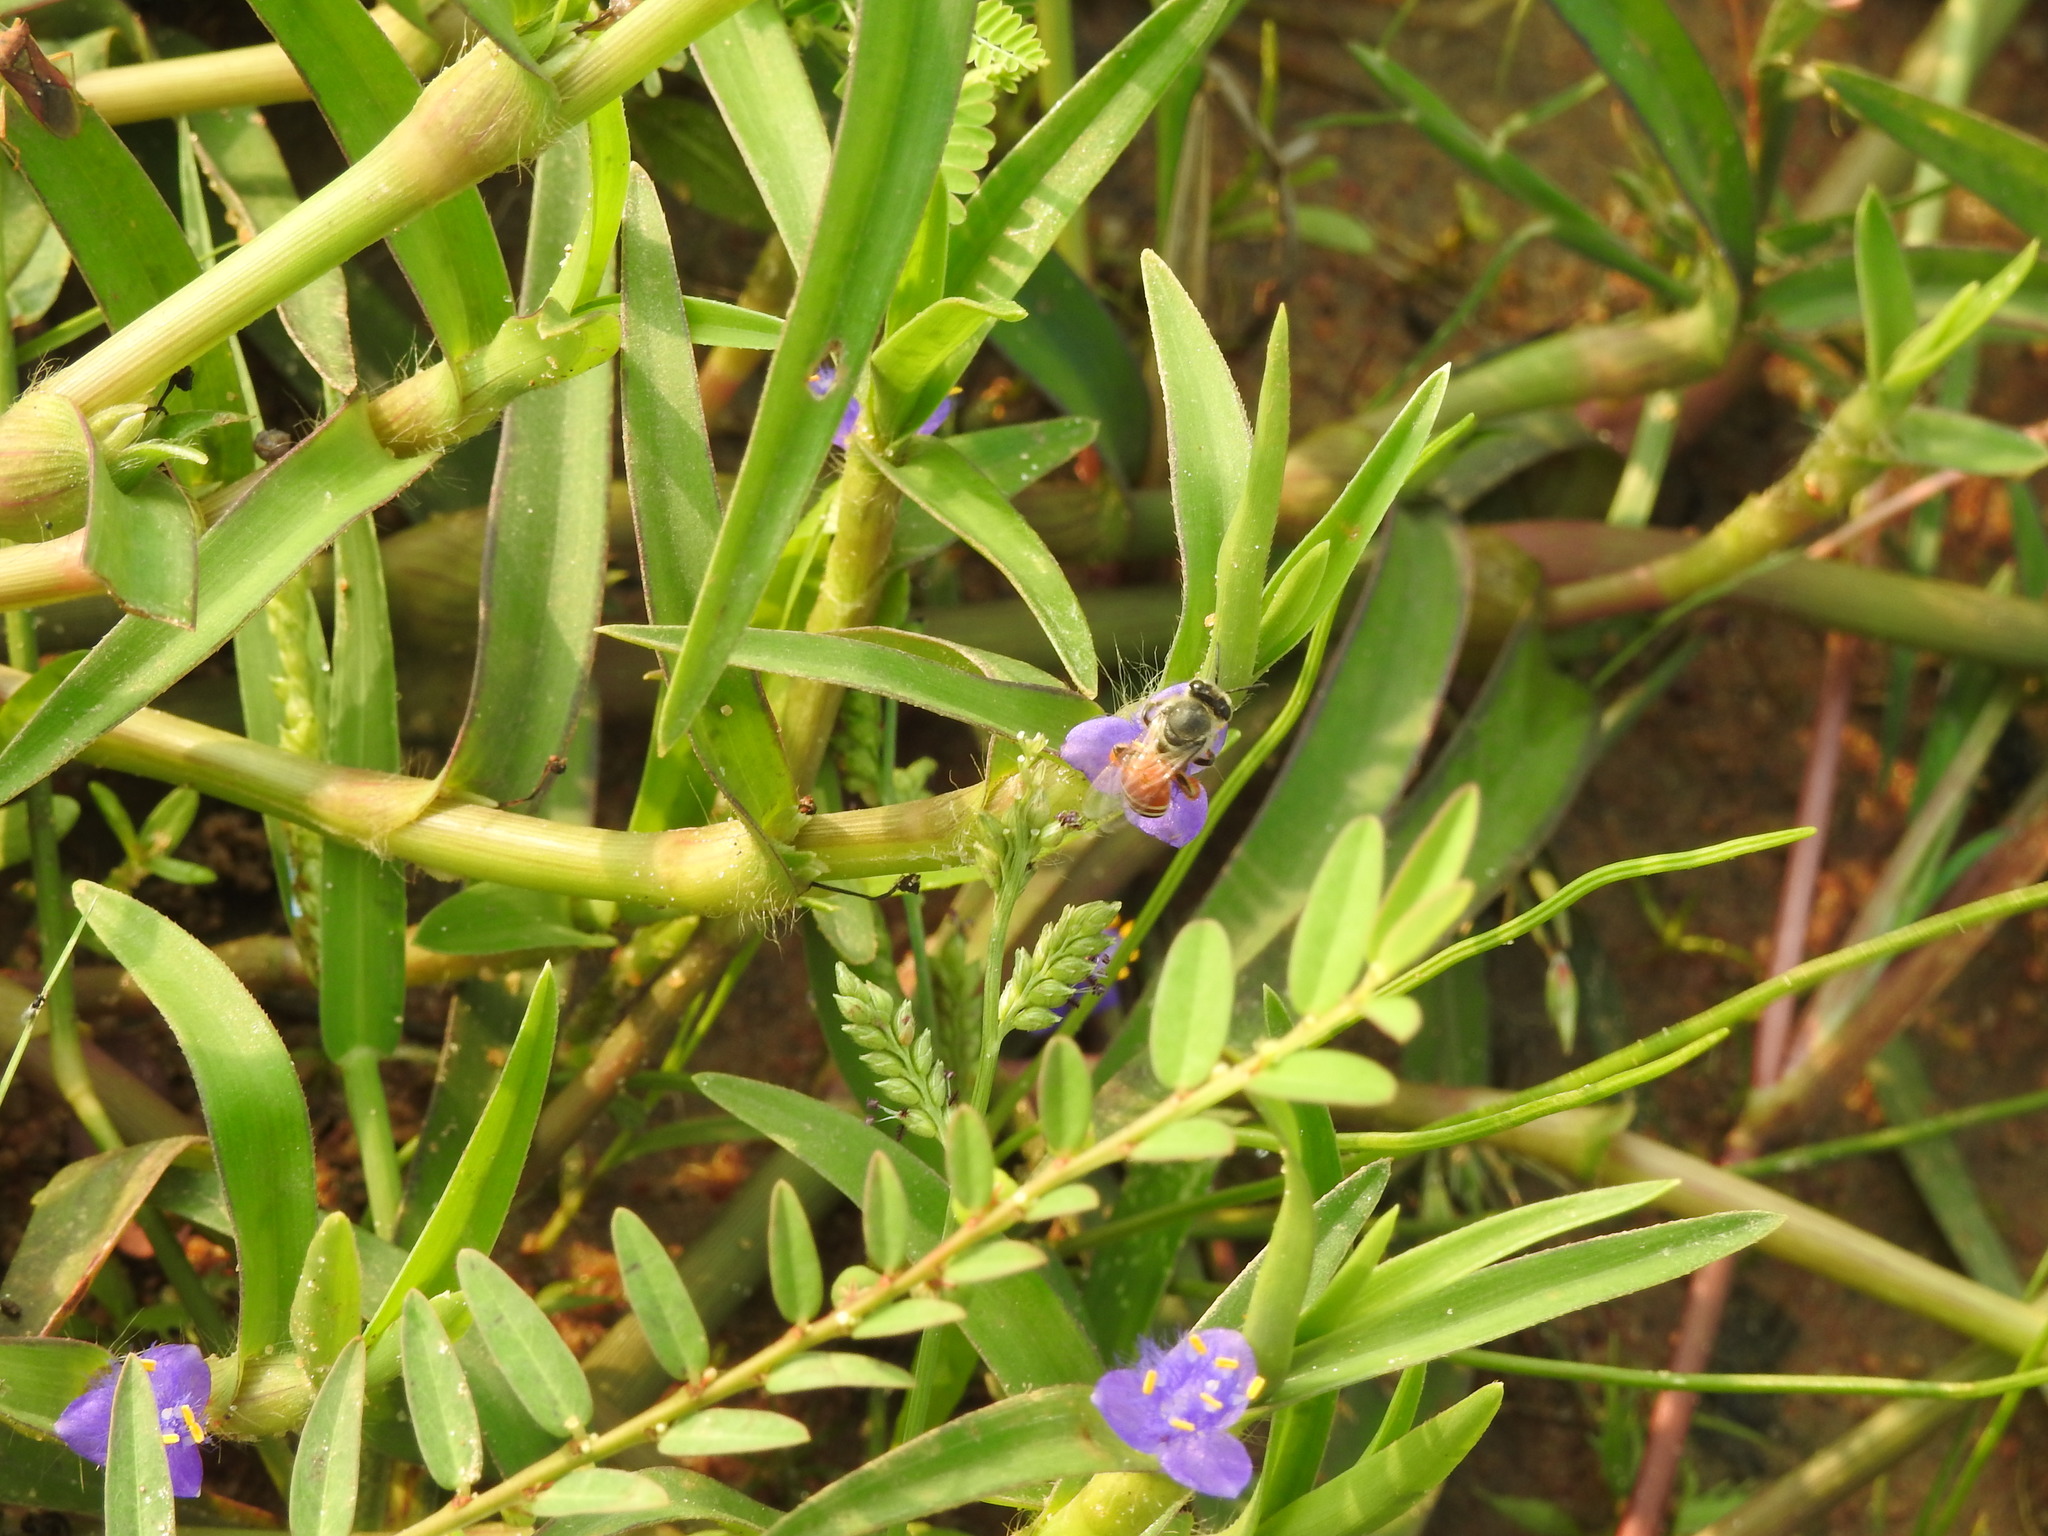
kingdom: Animalia
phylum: Arthropoda
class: Insecta
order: Hymenoptera
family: Apidae
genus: Apis
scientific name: Apis florea
